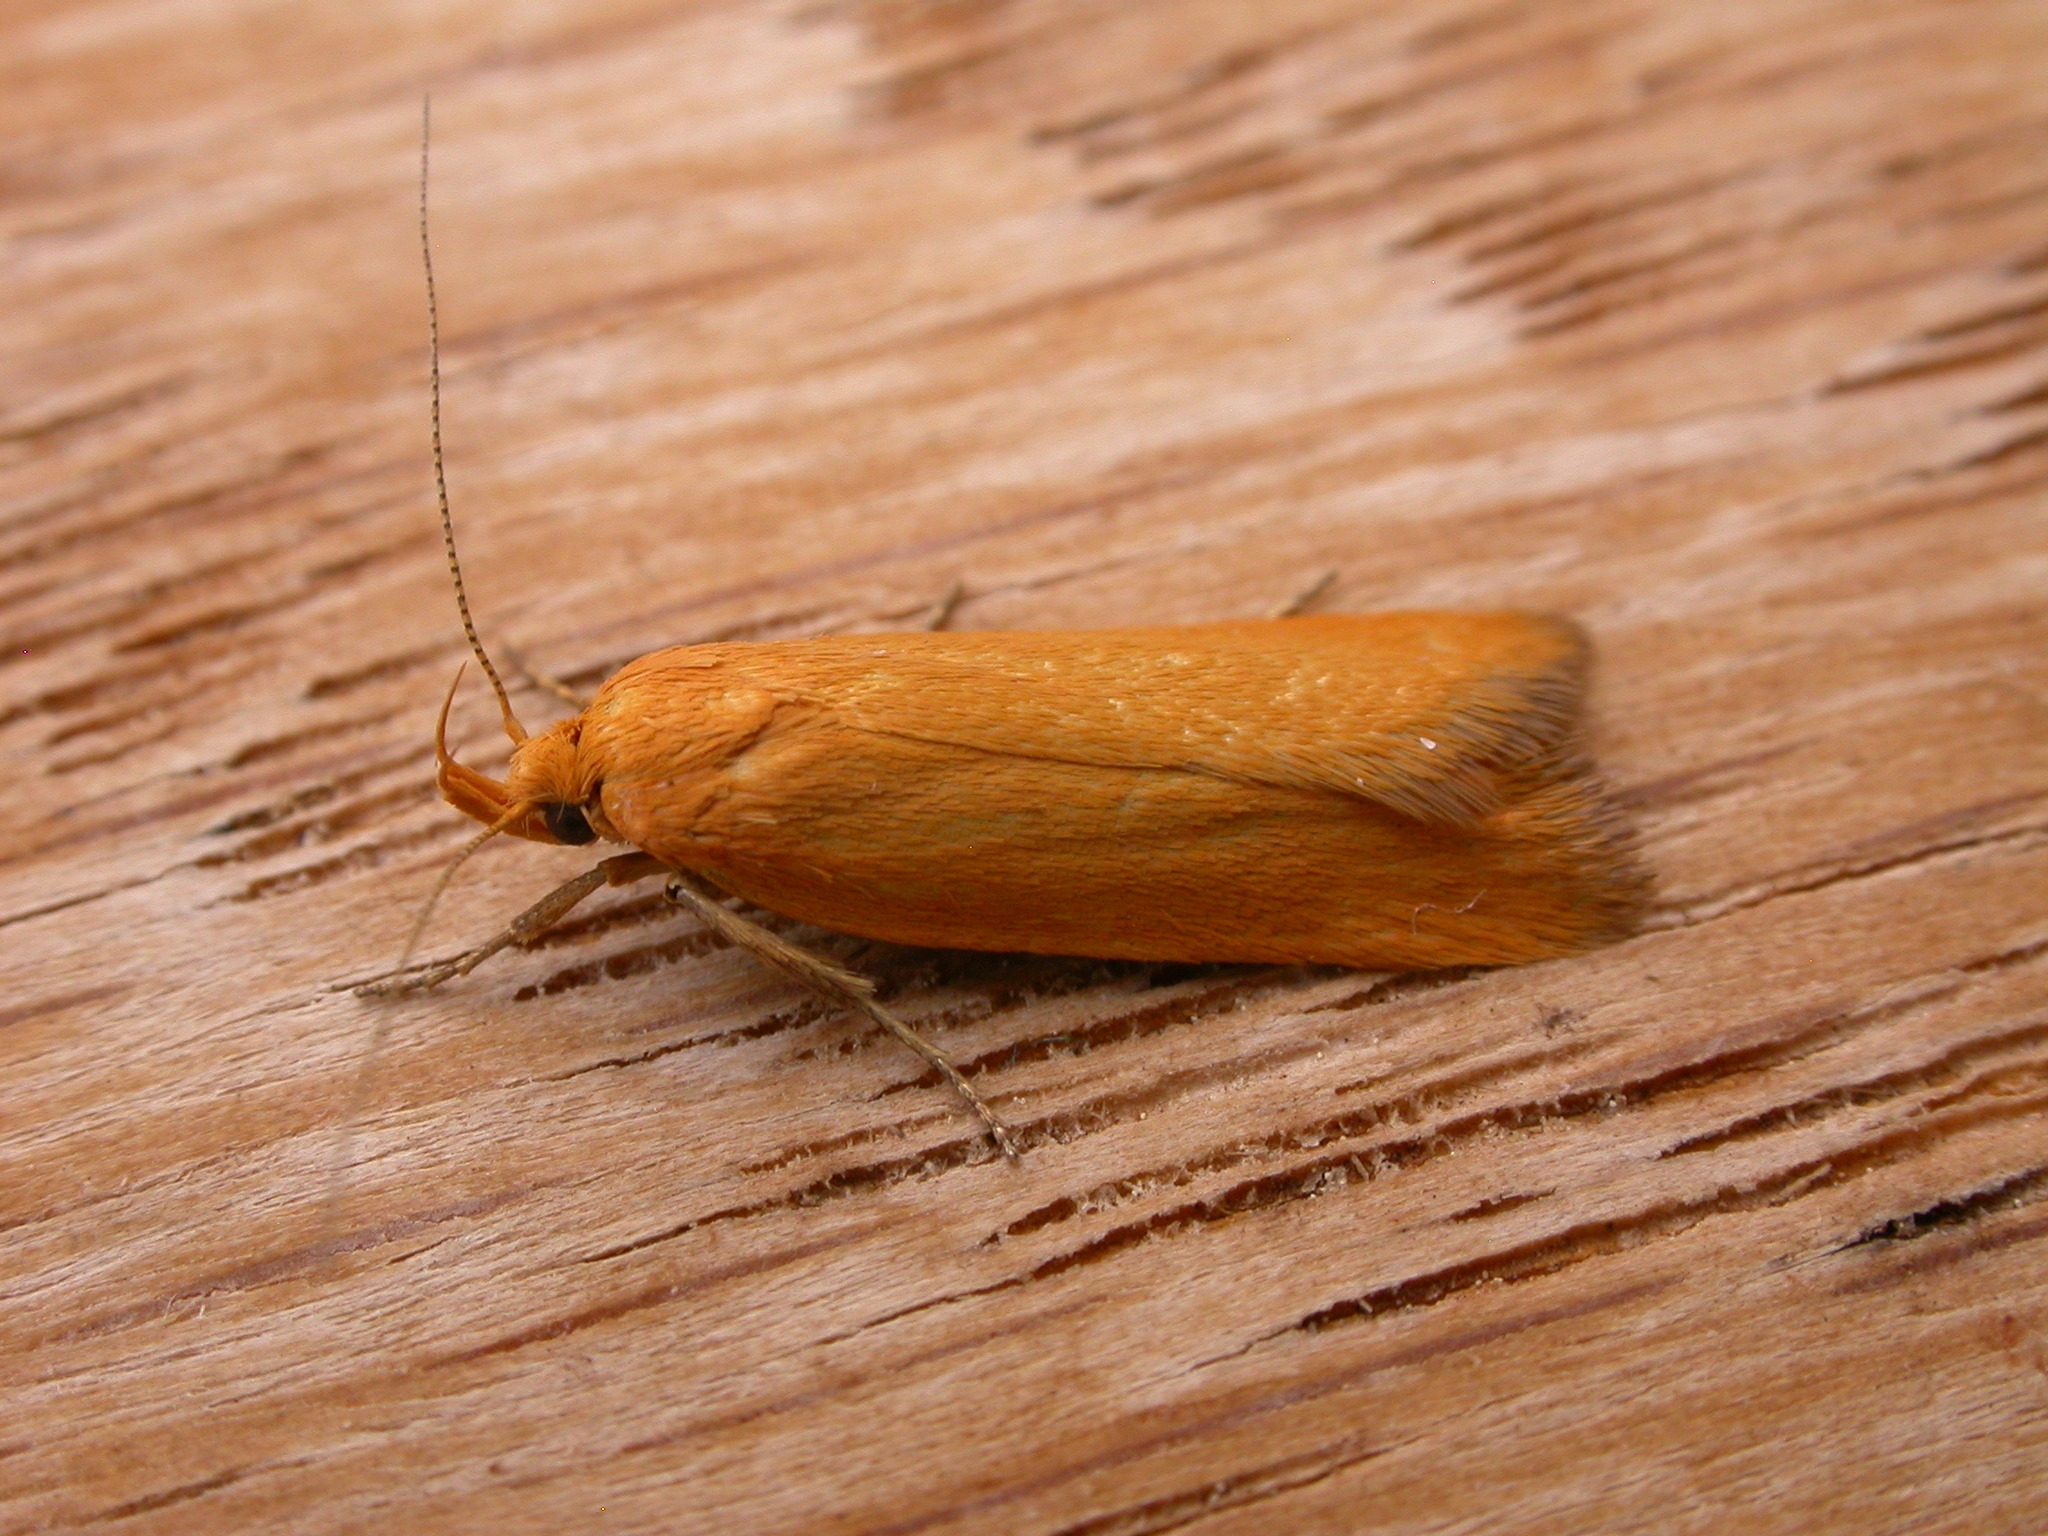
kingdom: Animalia
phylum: Arthropoda
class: Insecta
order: Lepidoptera
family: Oecophoridae
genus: Eulechria
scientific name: Eulechria electrodes
